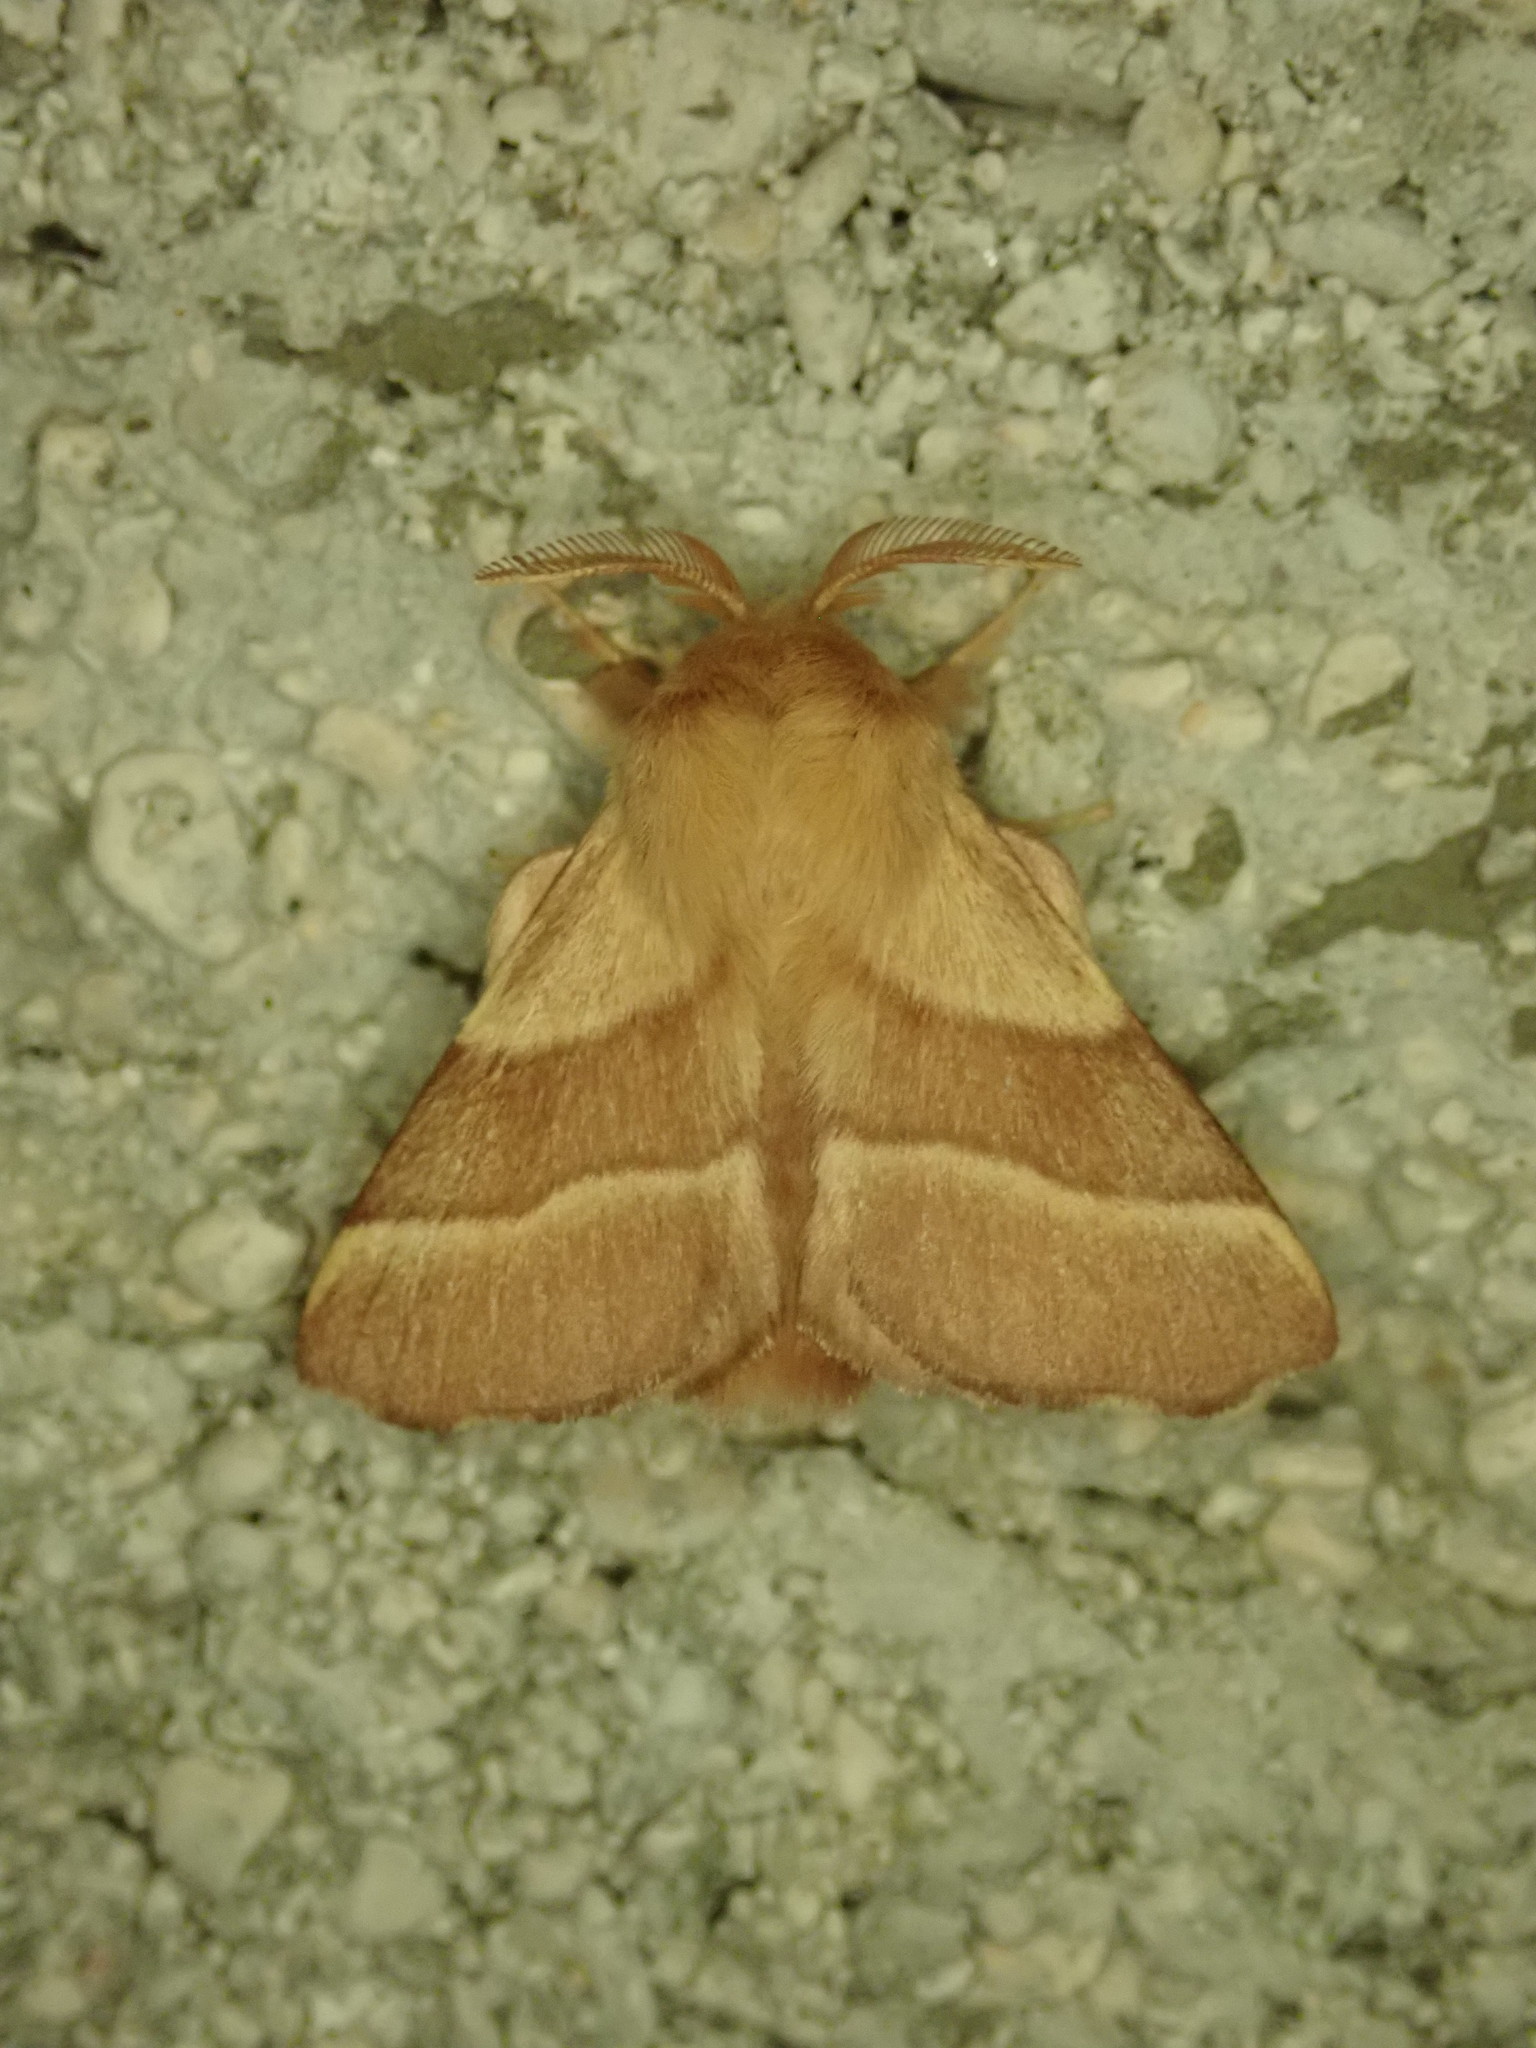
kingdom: Animalia
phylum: Arthropoda
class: Insecta
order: Lepidoptera
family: Lasiocampidae
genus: Malacosoma
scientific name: Malacosoma neustria
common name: The lackey
